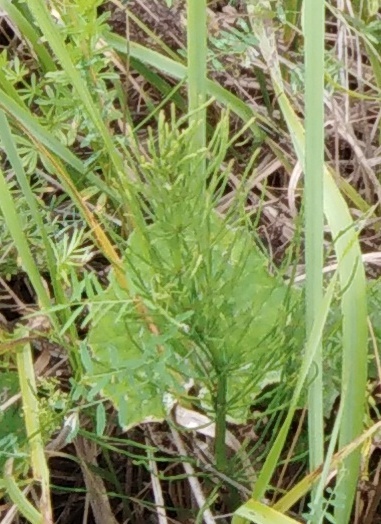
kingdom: Plantae
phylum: Tracheophyta
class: Polypodiopsida
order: Equisetales
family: Equisetaceae
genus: Equisetum
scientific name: Equisetum arvense
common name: Field horsetail
